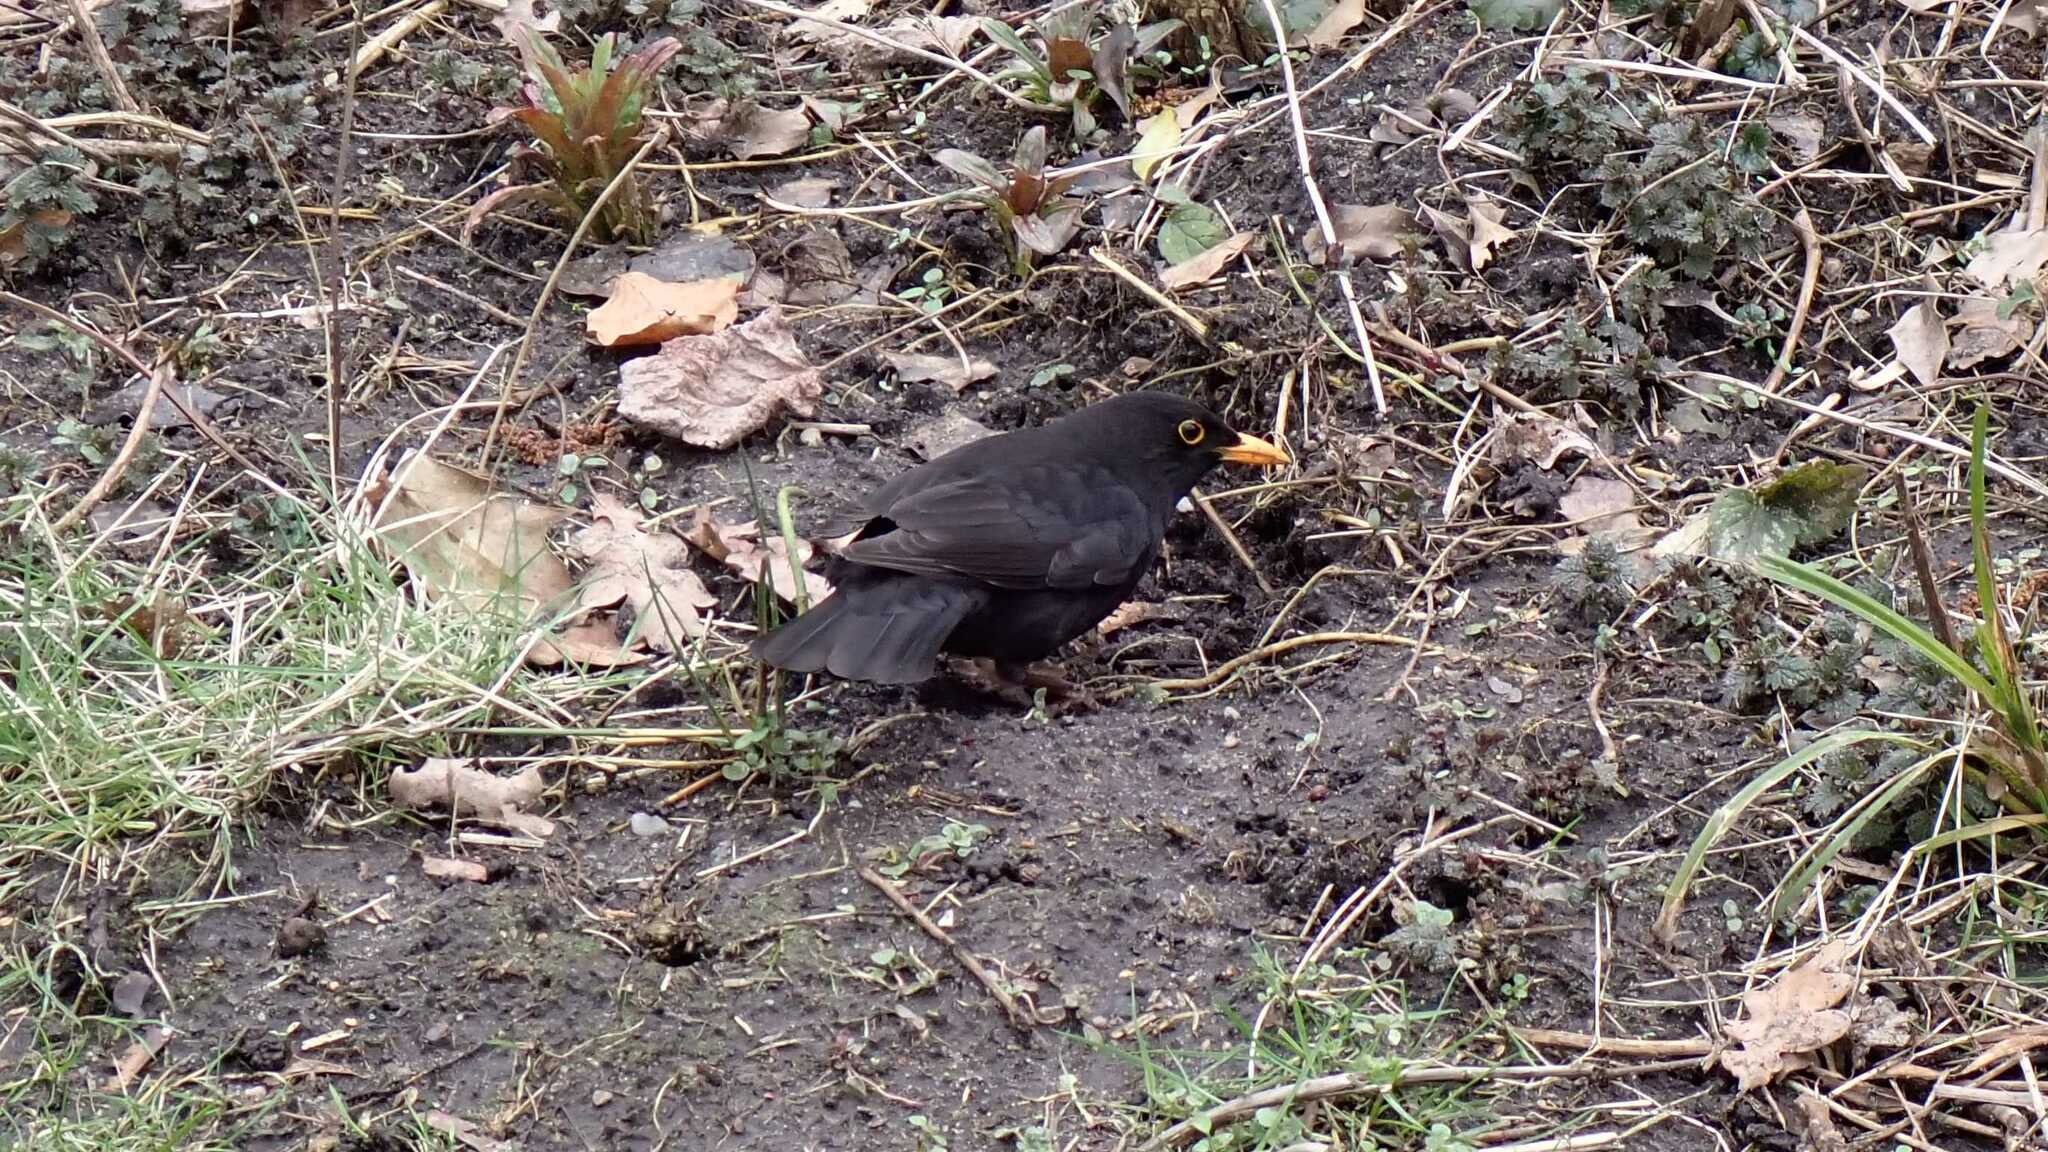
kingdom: Animalia
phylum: Chordata
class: Aves
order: Passeriformes
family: Turdidae
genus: Turdus
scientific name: Turdus merula
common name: Common blackbird
